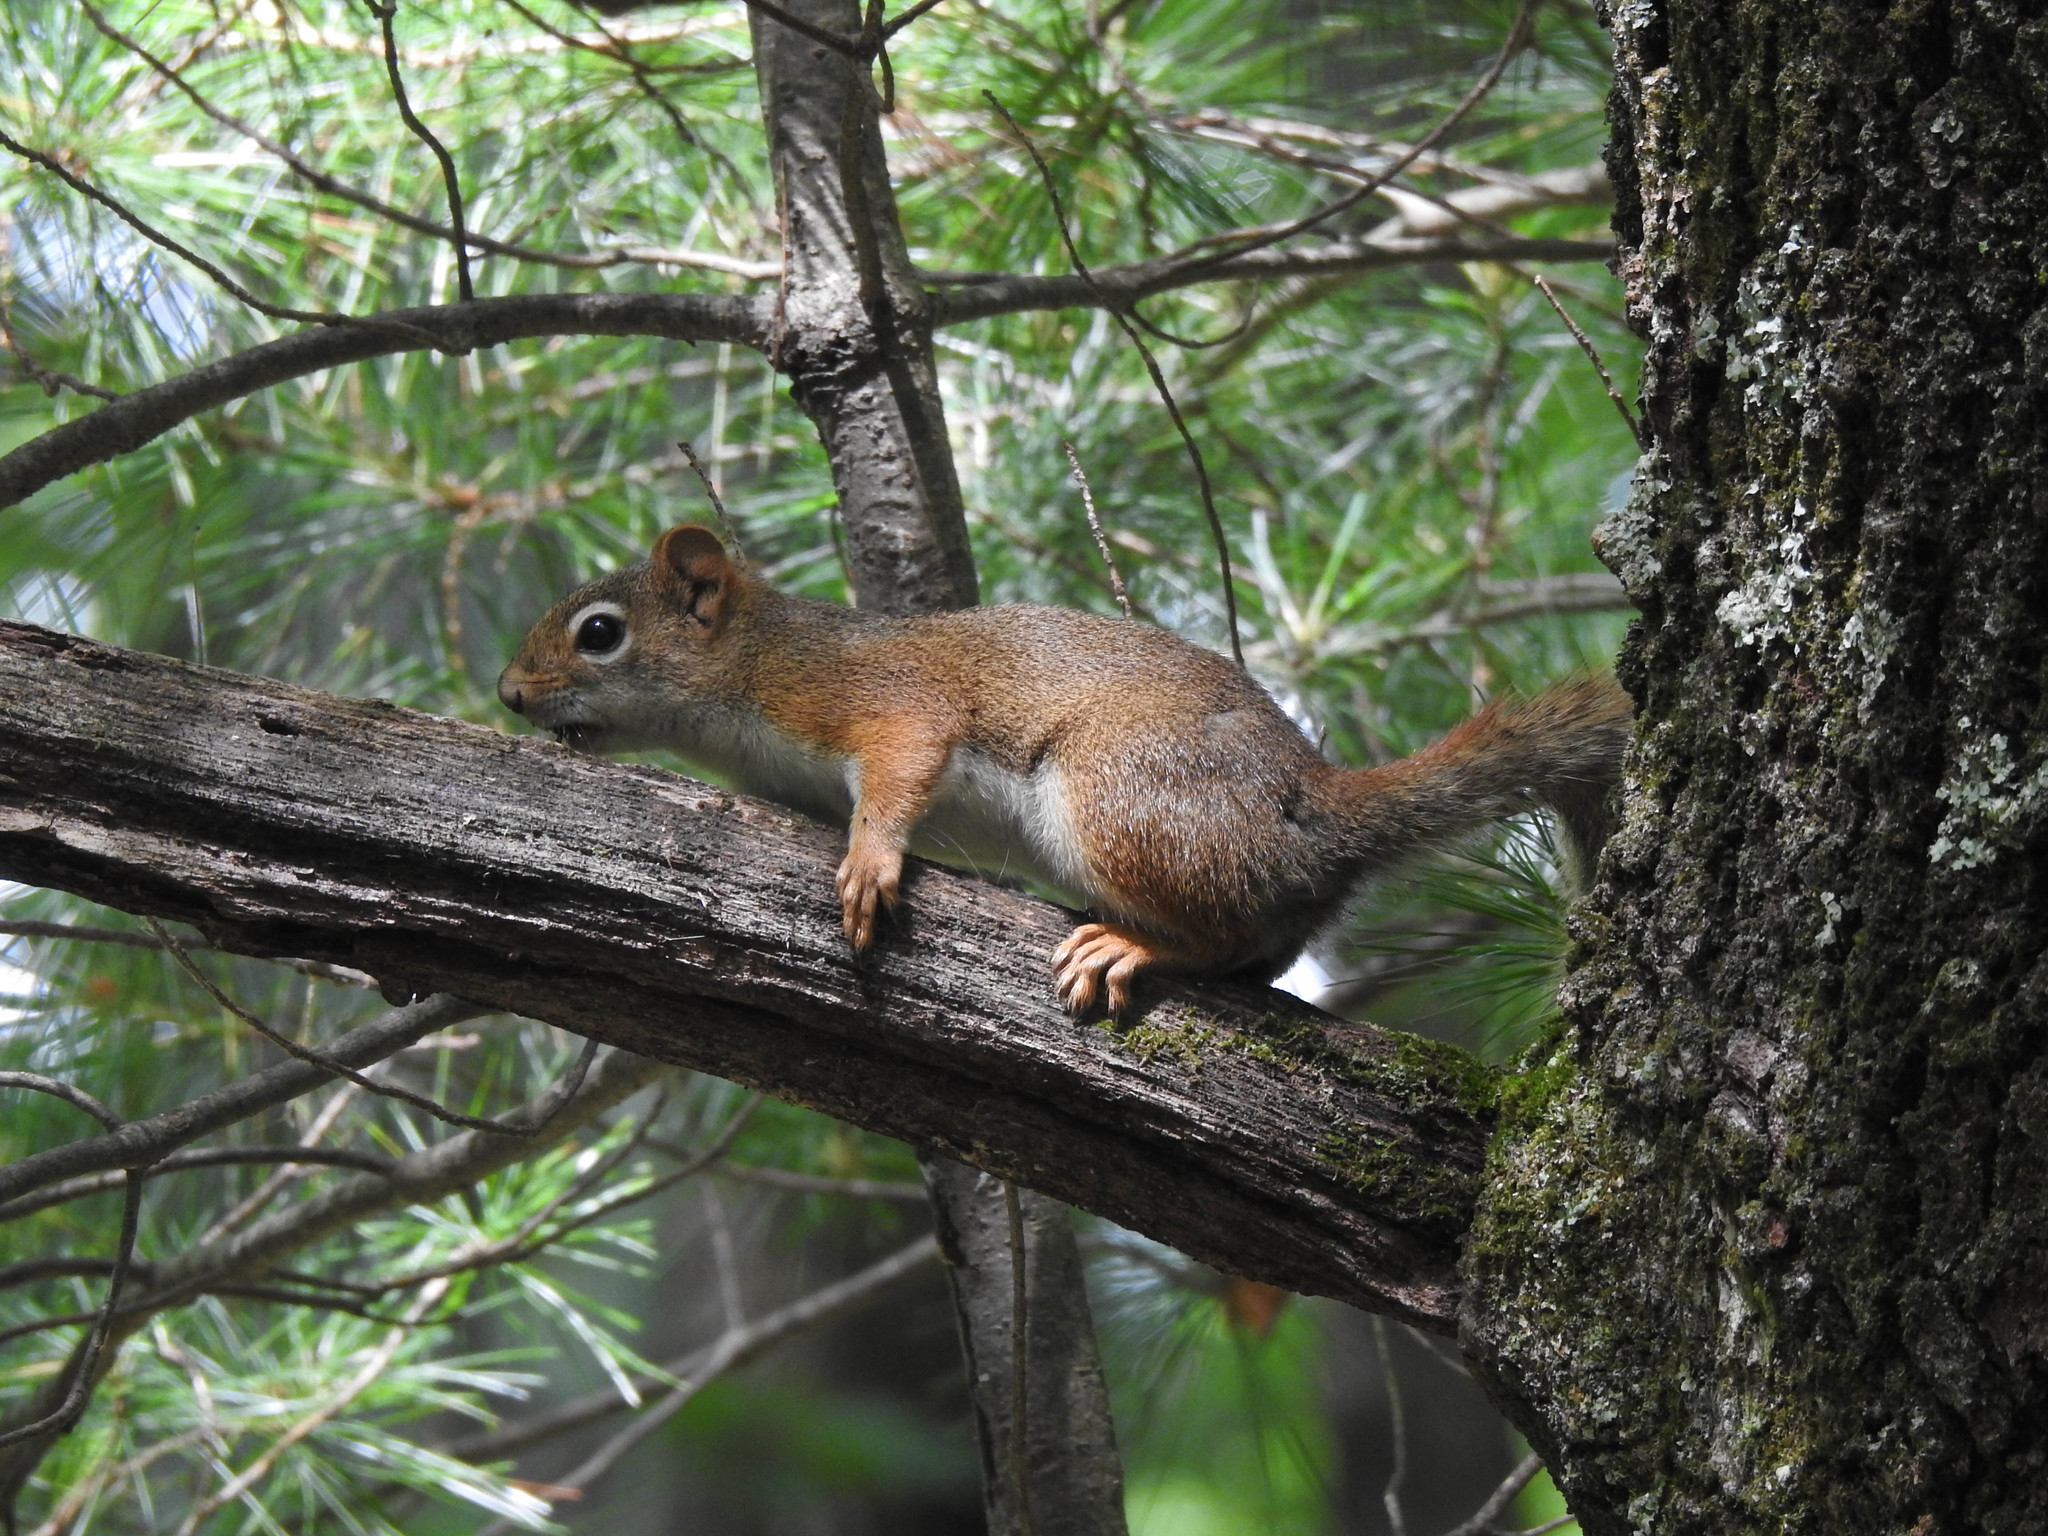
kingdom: Animalia
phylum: Chordata
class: Mammalia
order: Rodentia
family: Sciuridae
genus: Tamiasciurus
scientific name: Tamiasciurus hudsonicus
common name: Red squirrel
